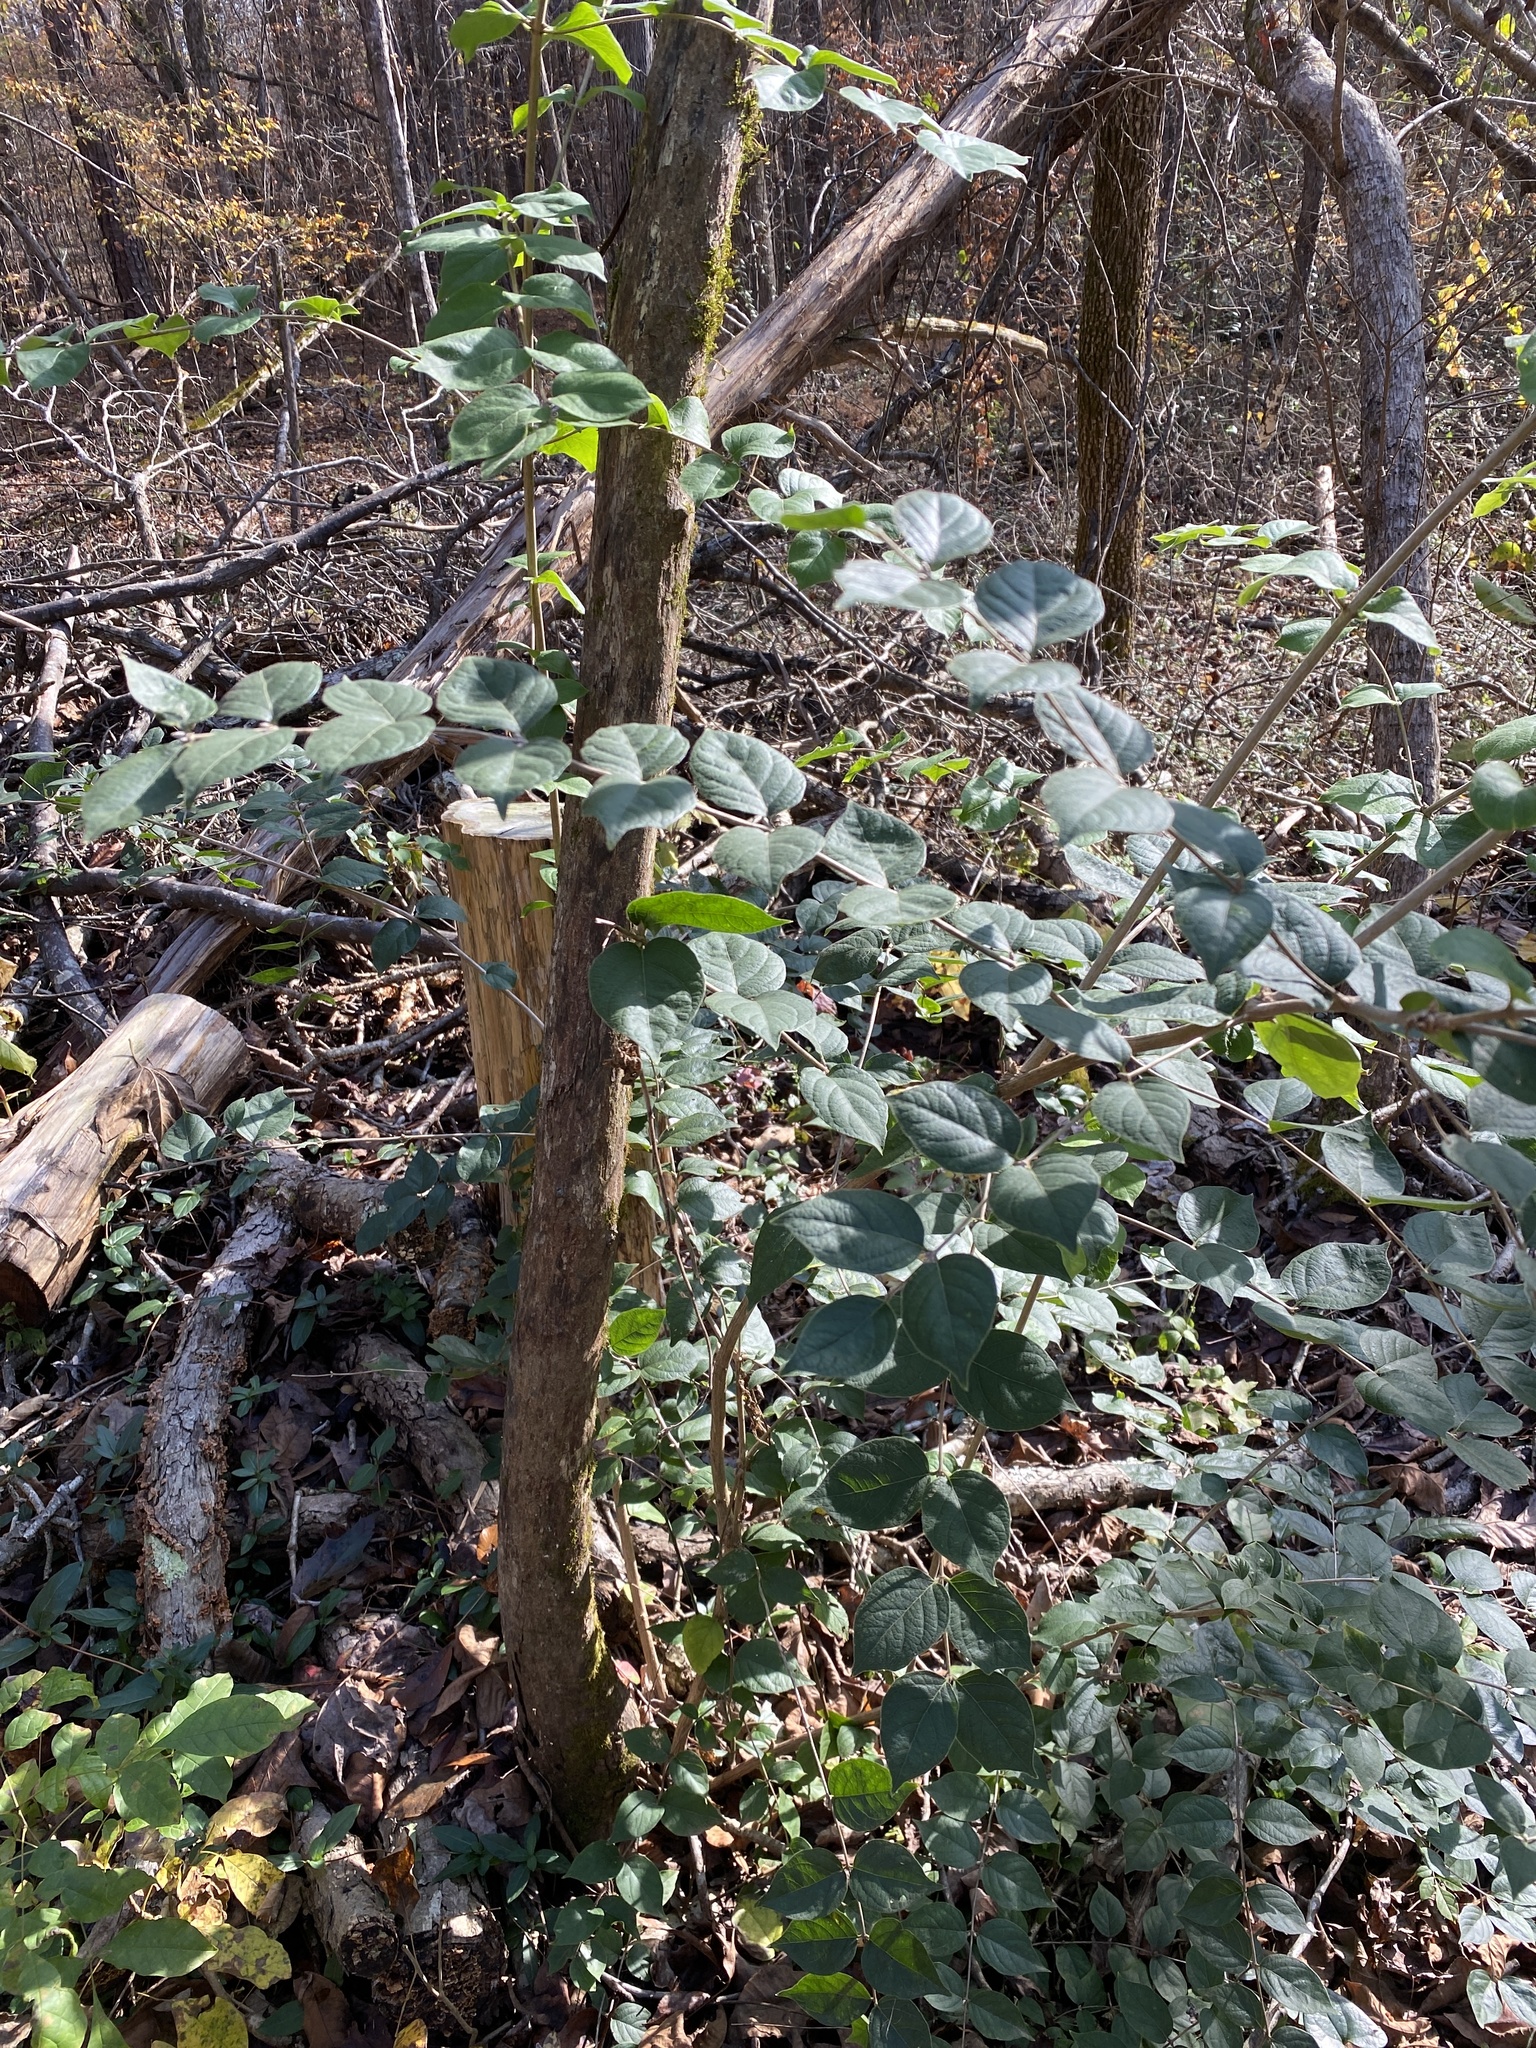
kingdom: Plantae
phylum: Tracheophyta
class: Magnoliopsida
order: Dipsacales
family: Caprifoliaceae
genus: Lonicera
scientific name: Lonicera maackii
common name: Amur honeysuckle
